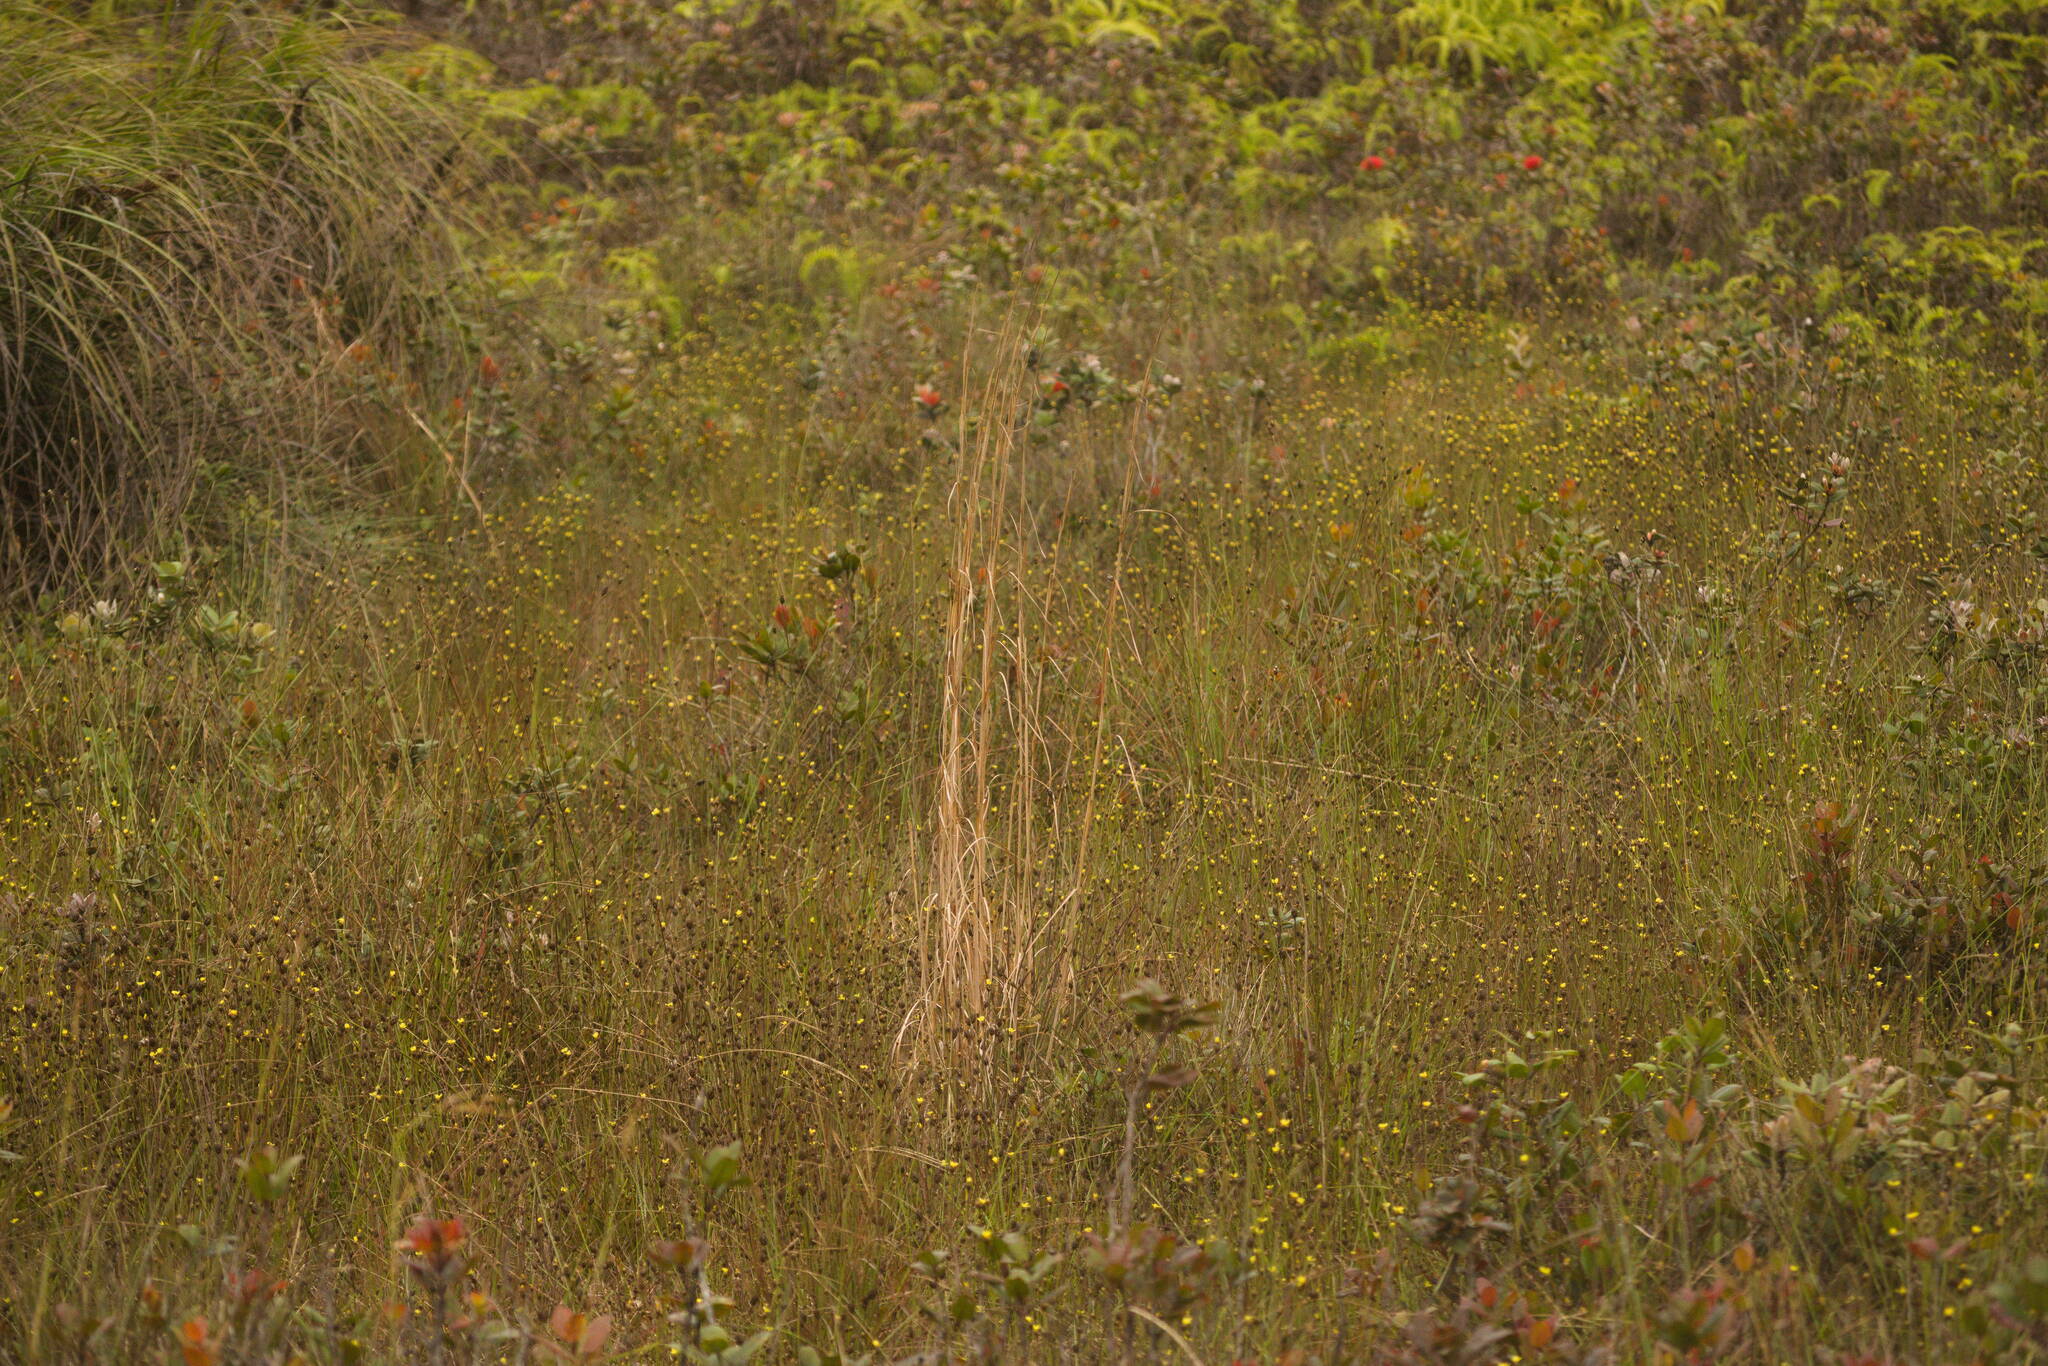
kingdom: Plantae
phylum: Tracheophyta
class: Liliopsida
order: Poales
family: Poaceae
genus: Andropogon
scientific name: Andropogon virginicus
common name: Broomsedge bluestem
